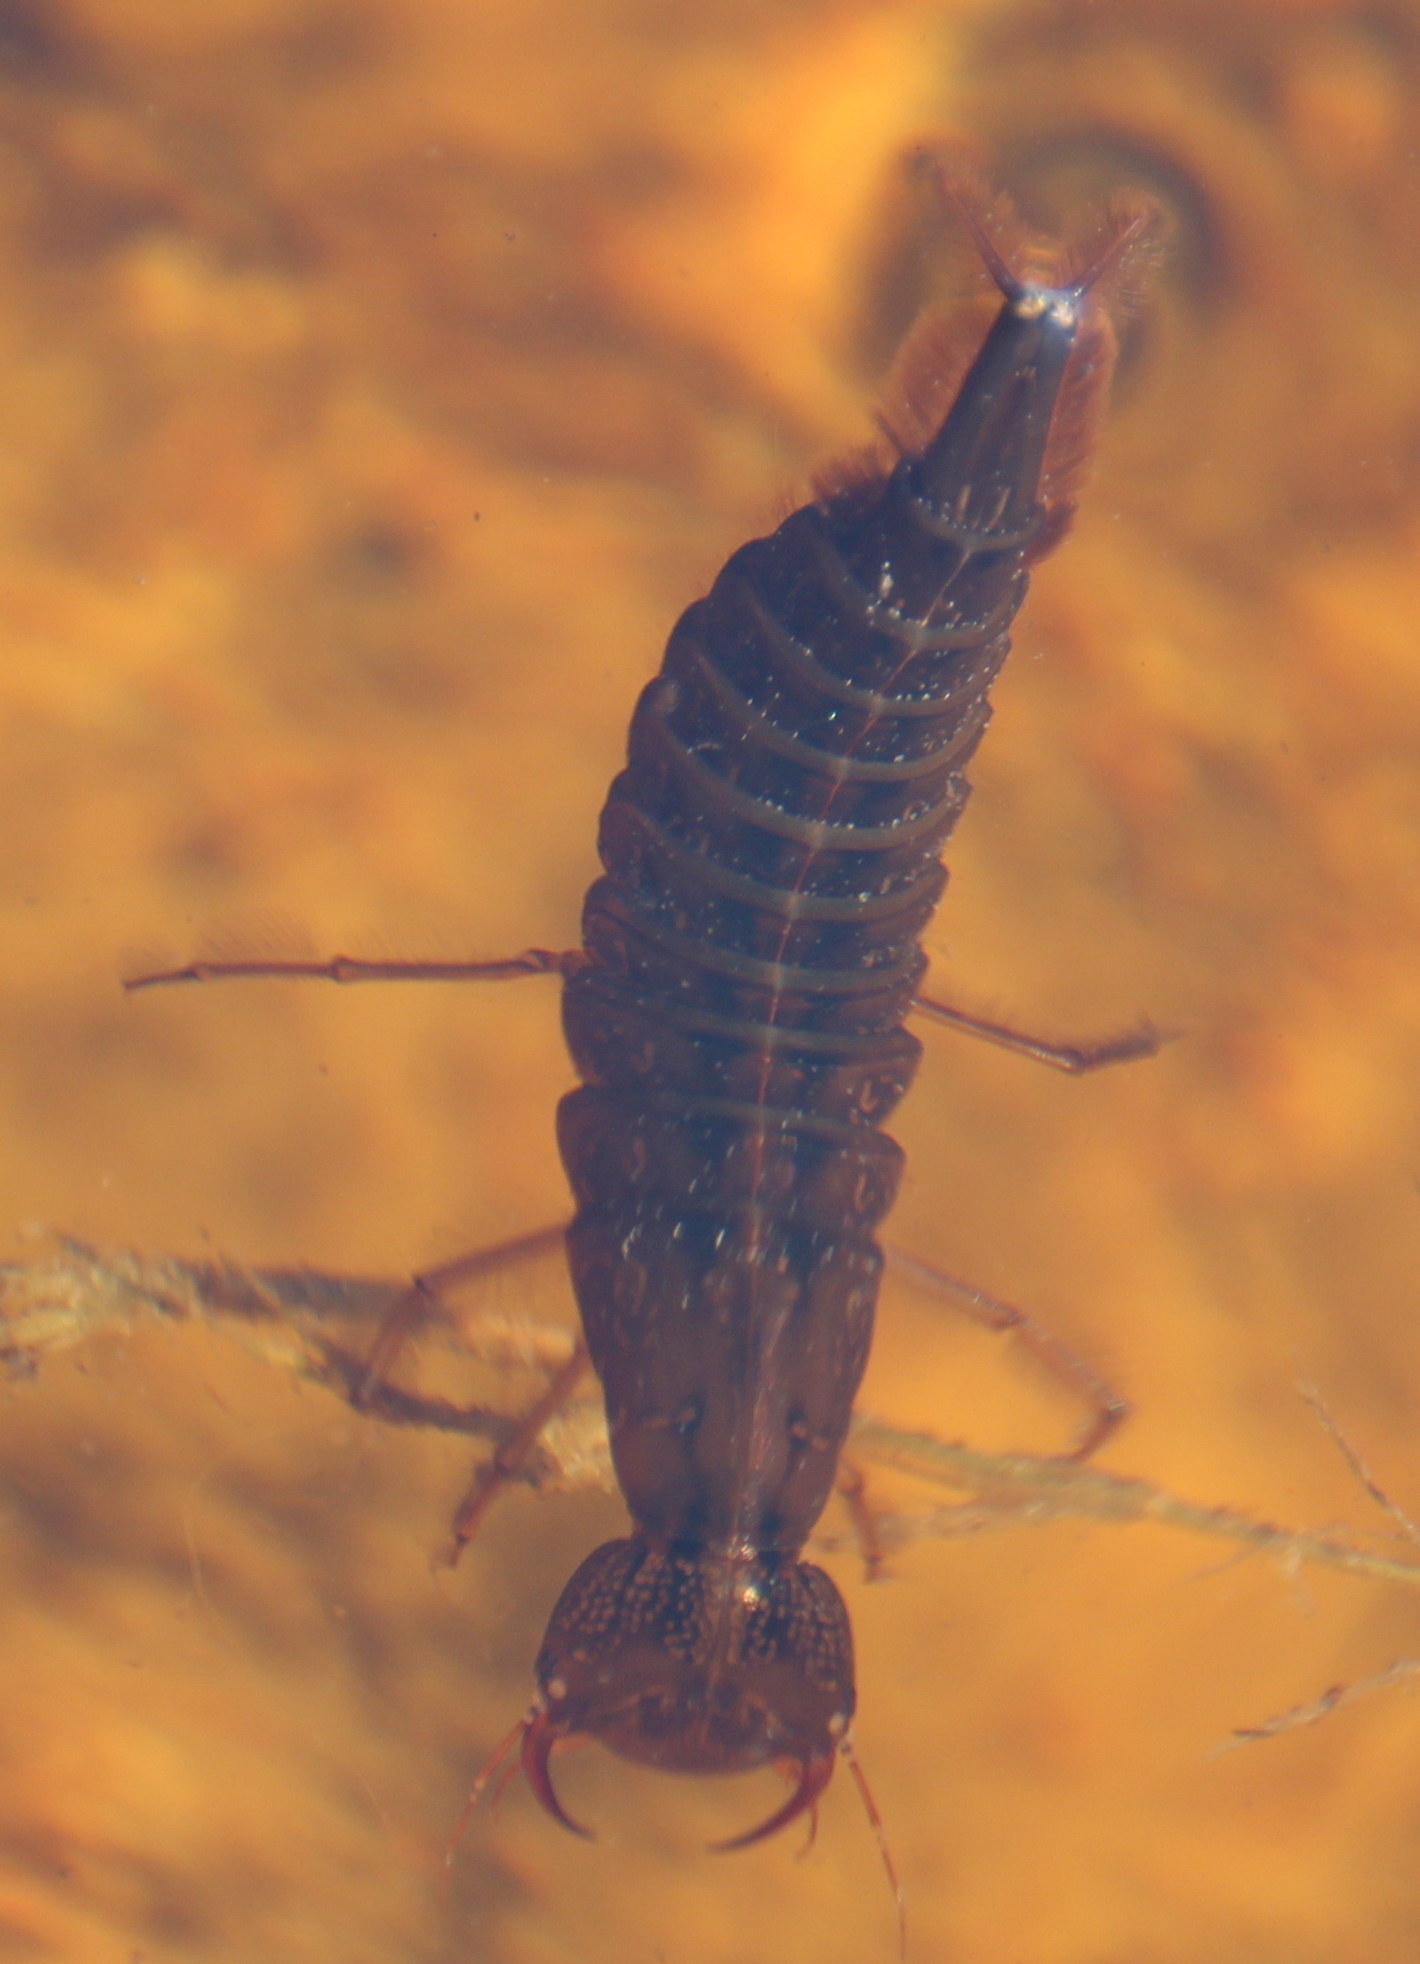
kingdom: Animalia
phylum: Arthropoda
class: Insecta
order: Coleoptera
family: Dytiscidae
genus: Dytiscus
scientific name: Dytiscus
